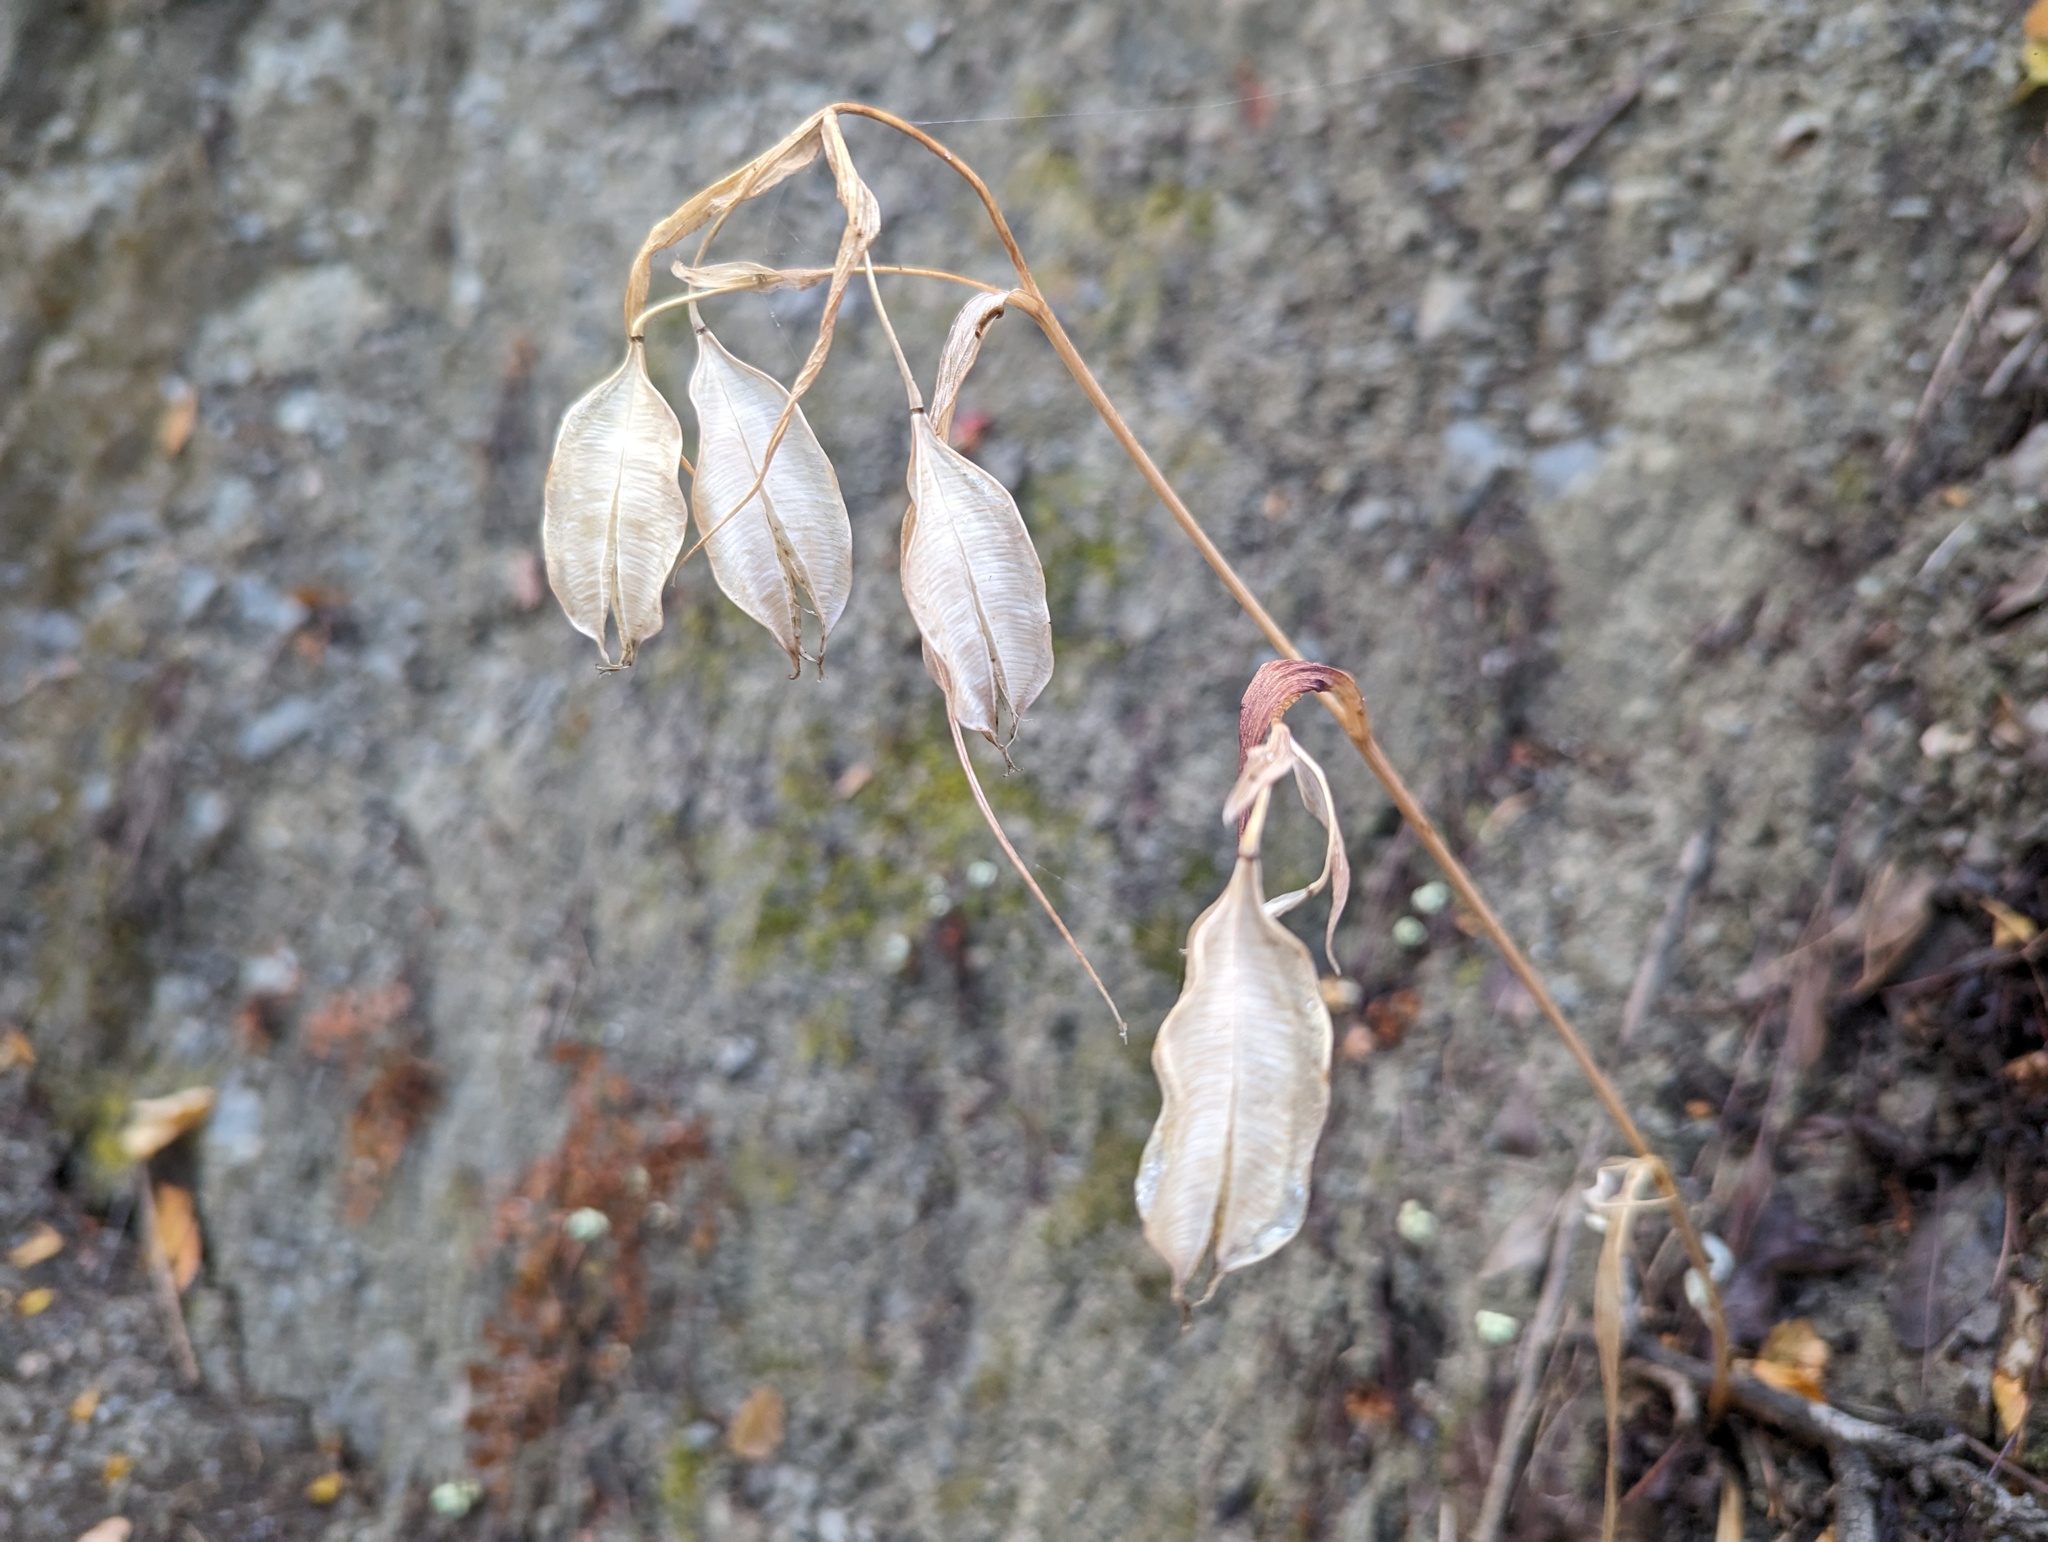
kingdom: Plantae
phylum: Tracheophyta
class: Liliopsida
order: Liliales
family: Liliaceae
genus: Calochortus
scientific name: Calochortus albus
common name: Fairy-lantern
